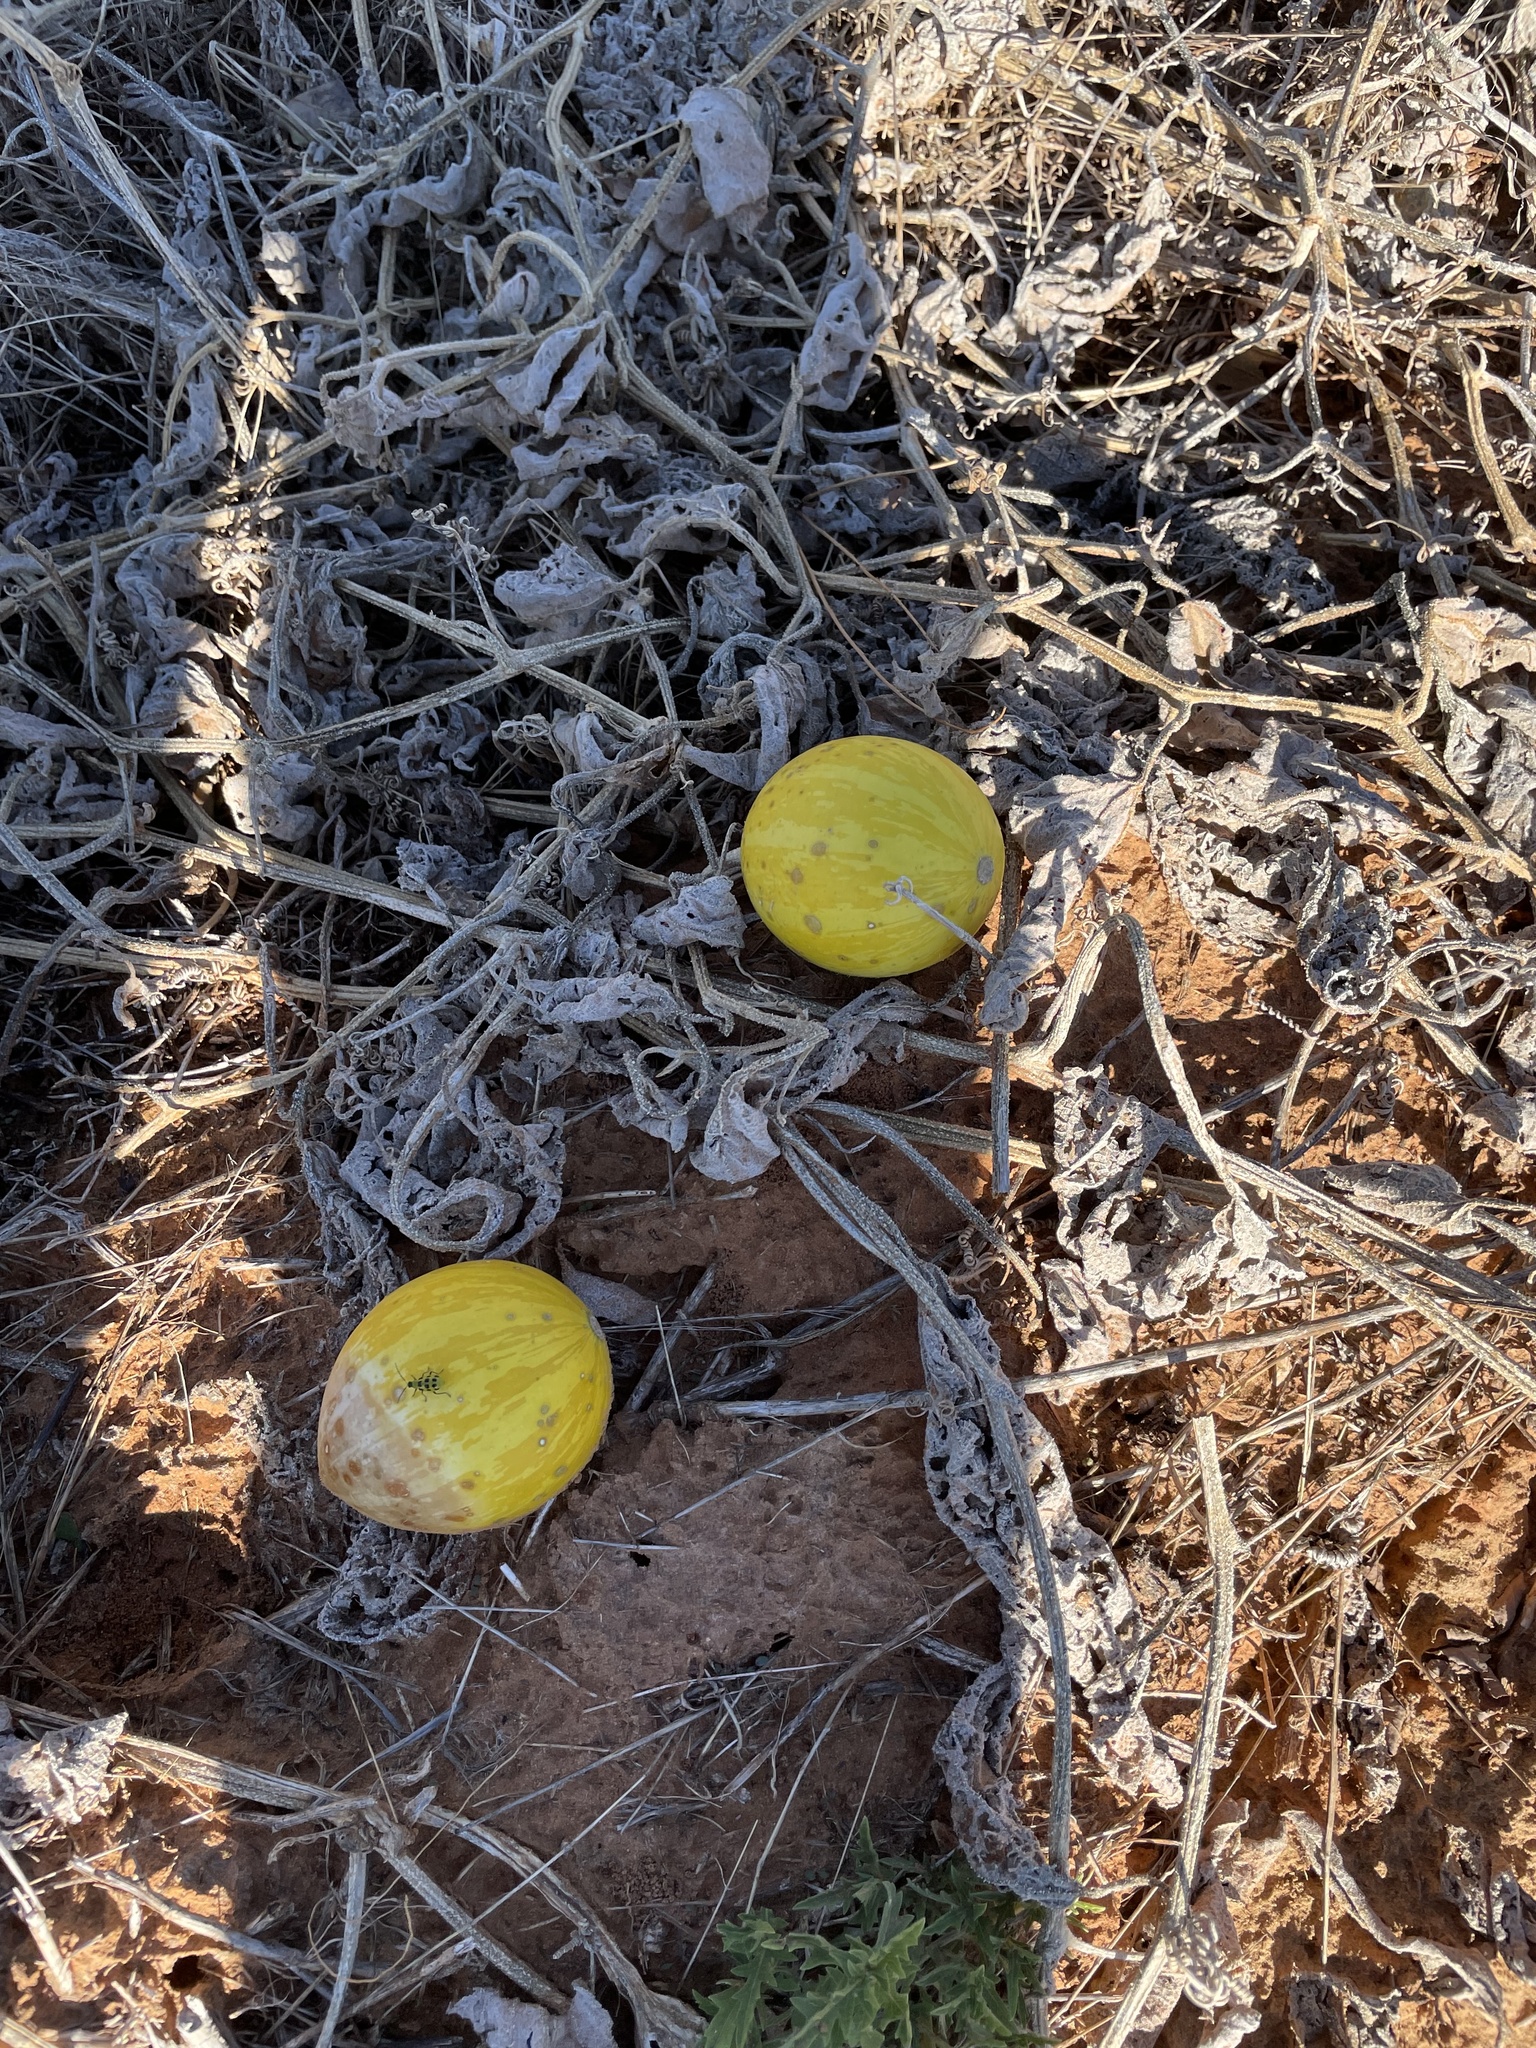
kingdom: Plantae
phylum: Tracheophyta
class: Magnoliopsida
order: Cucurbitales
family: Cucurbitaceae
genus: Cucurbita
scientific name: Cucurbita foetidissima
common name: Buffalo gourd
